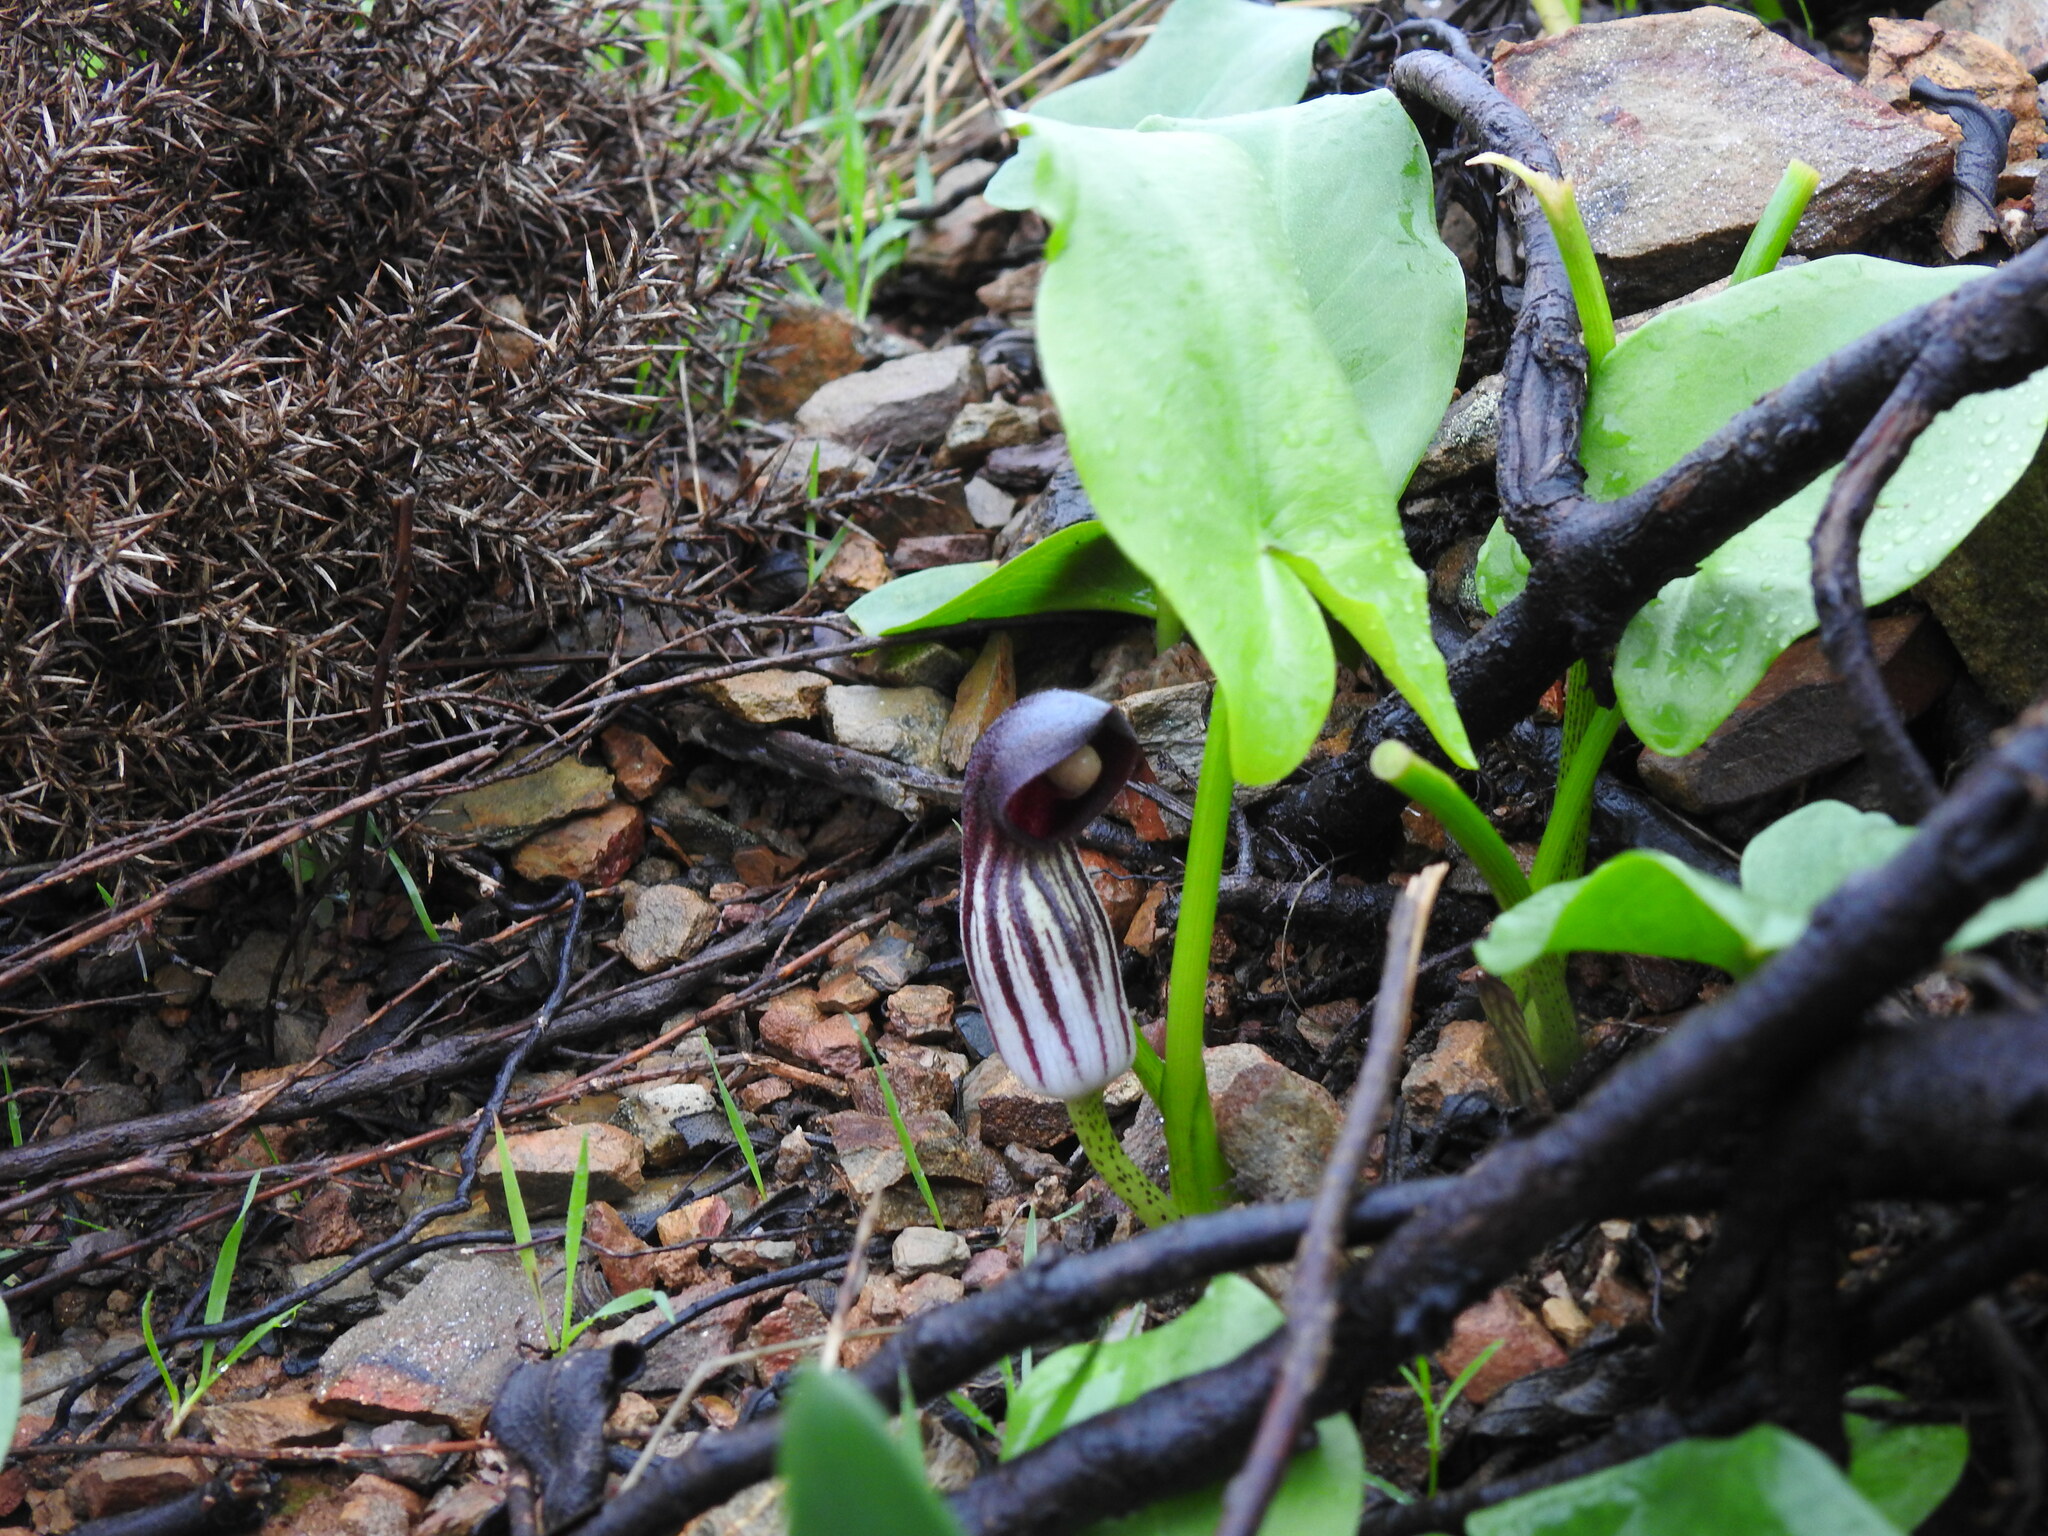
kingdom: Plantae
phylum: Tracheophyta
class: Liliopsida
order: Alismatales
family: Araceae
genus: Arisarum
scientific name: Arisarum simorrhinum
